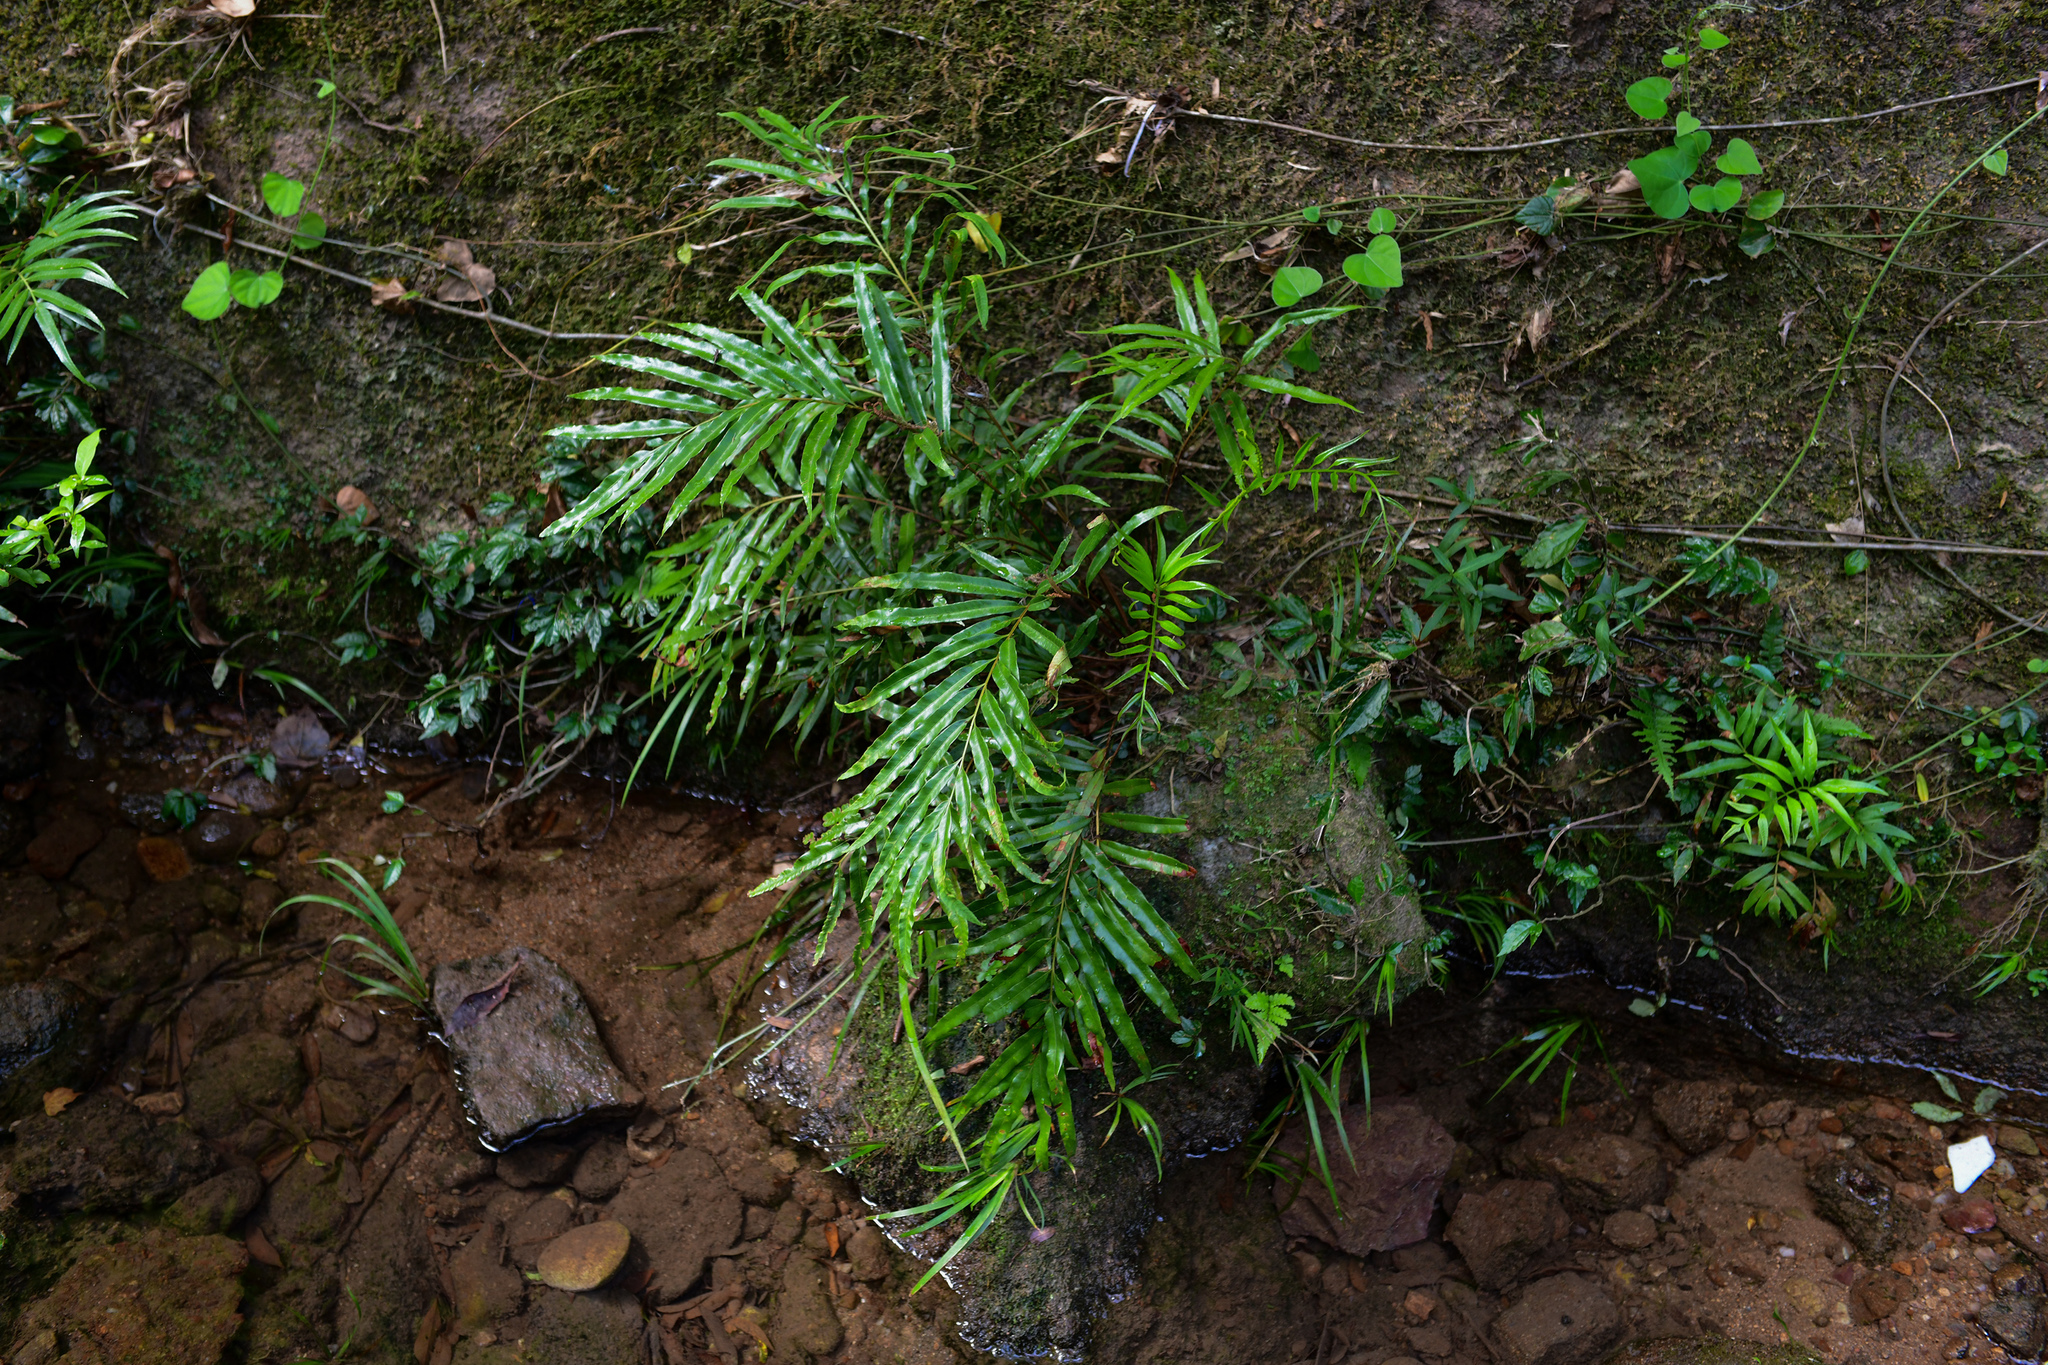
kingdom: Plantae
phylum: Tracheophyta
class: Polypodiopsida
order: Osmundales
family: Osmundaceae
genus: Plenasium
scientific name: Plenasium vachellii
